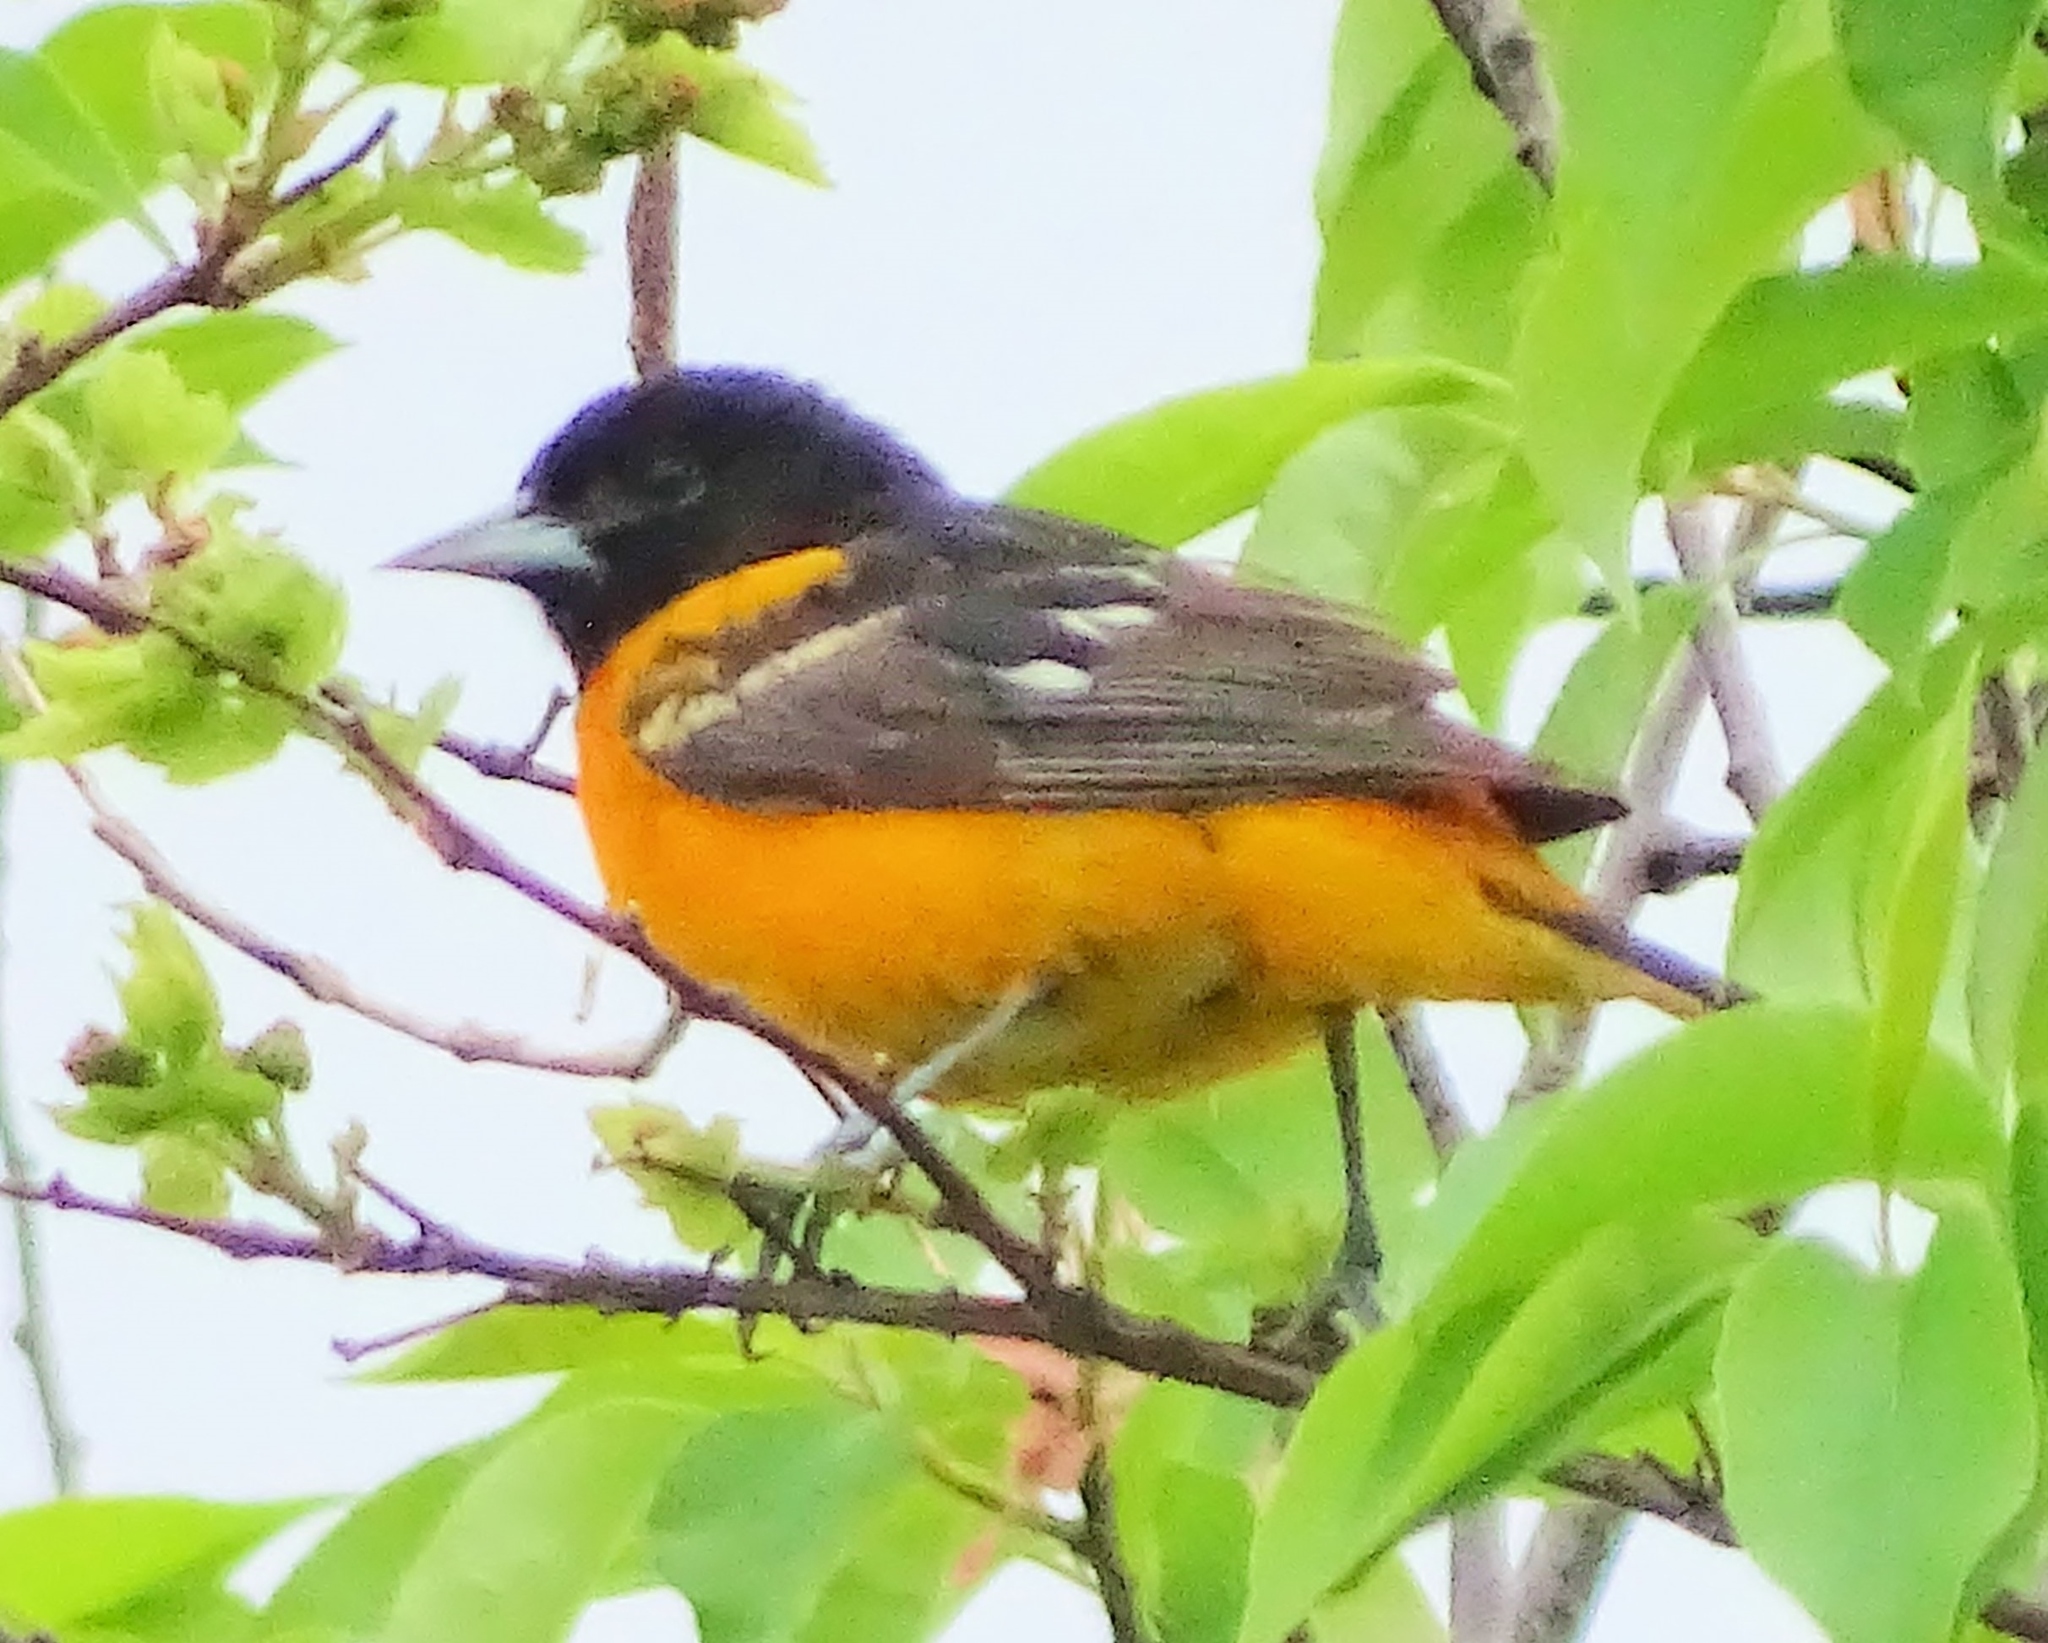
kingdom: Animalia
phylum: Chordata
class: Aves
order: Passeriformes
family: Icteridae
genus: Icterus
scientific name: Icterus galbula
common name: Baltimore oriole
